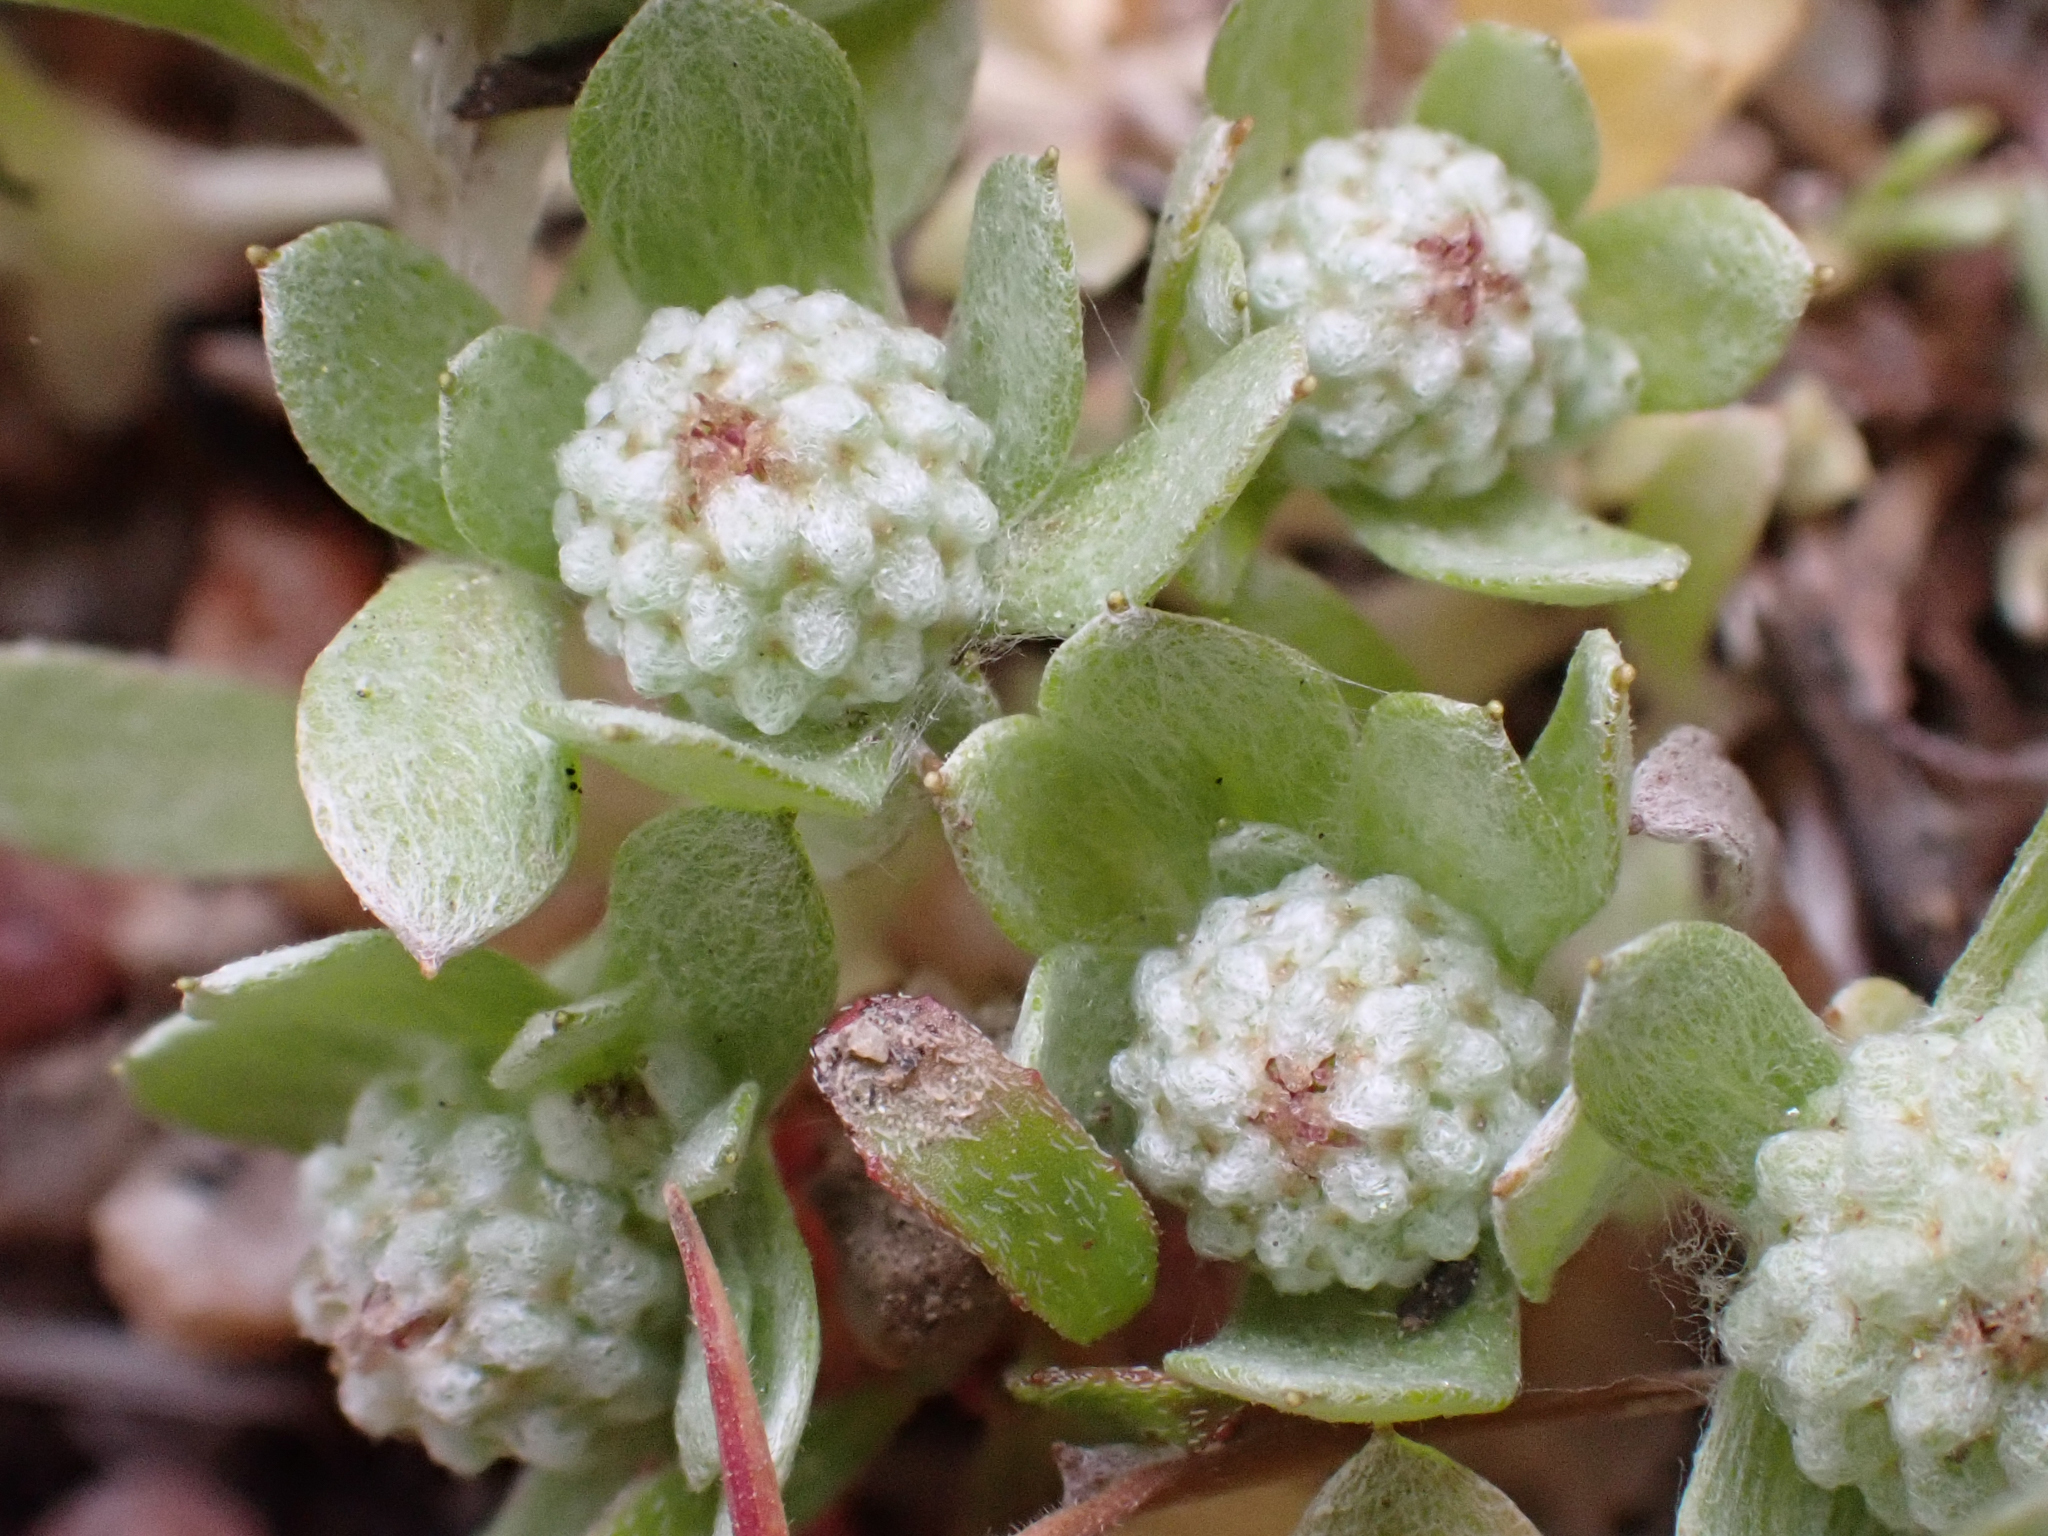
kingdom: Plantae
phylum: Tracheophyta
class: Magnoliopsida
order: Asterales
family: Asteraceae
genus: Psilocarphus
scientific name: Psilocarphus tenellus
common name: Slender woolly-marbles
